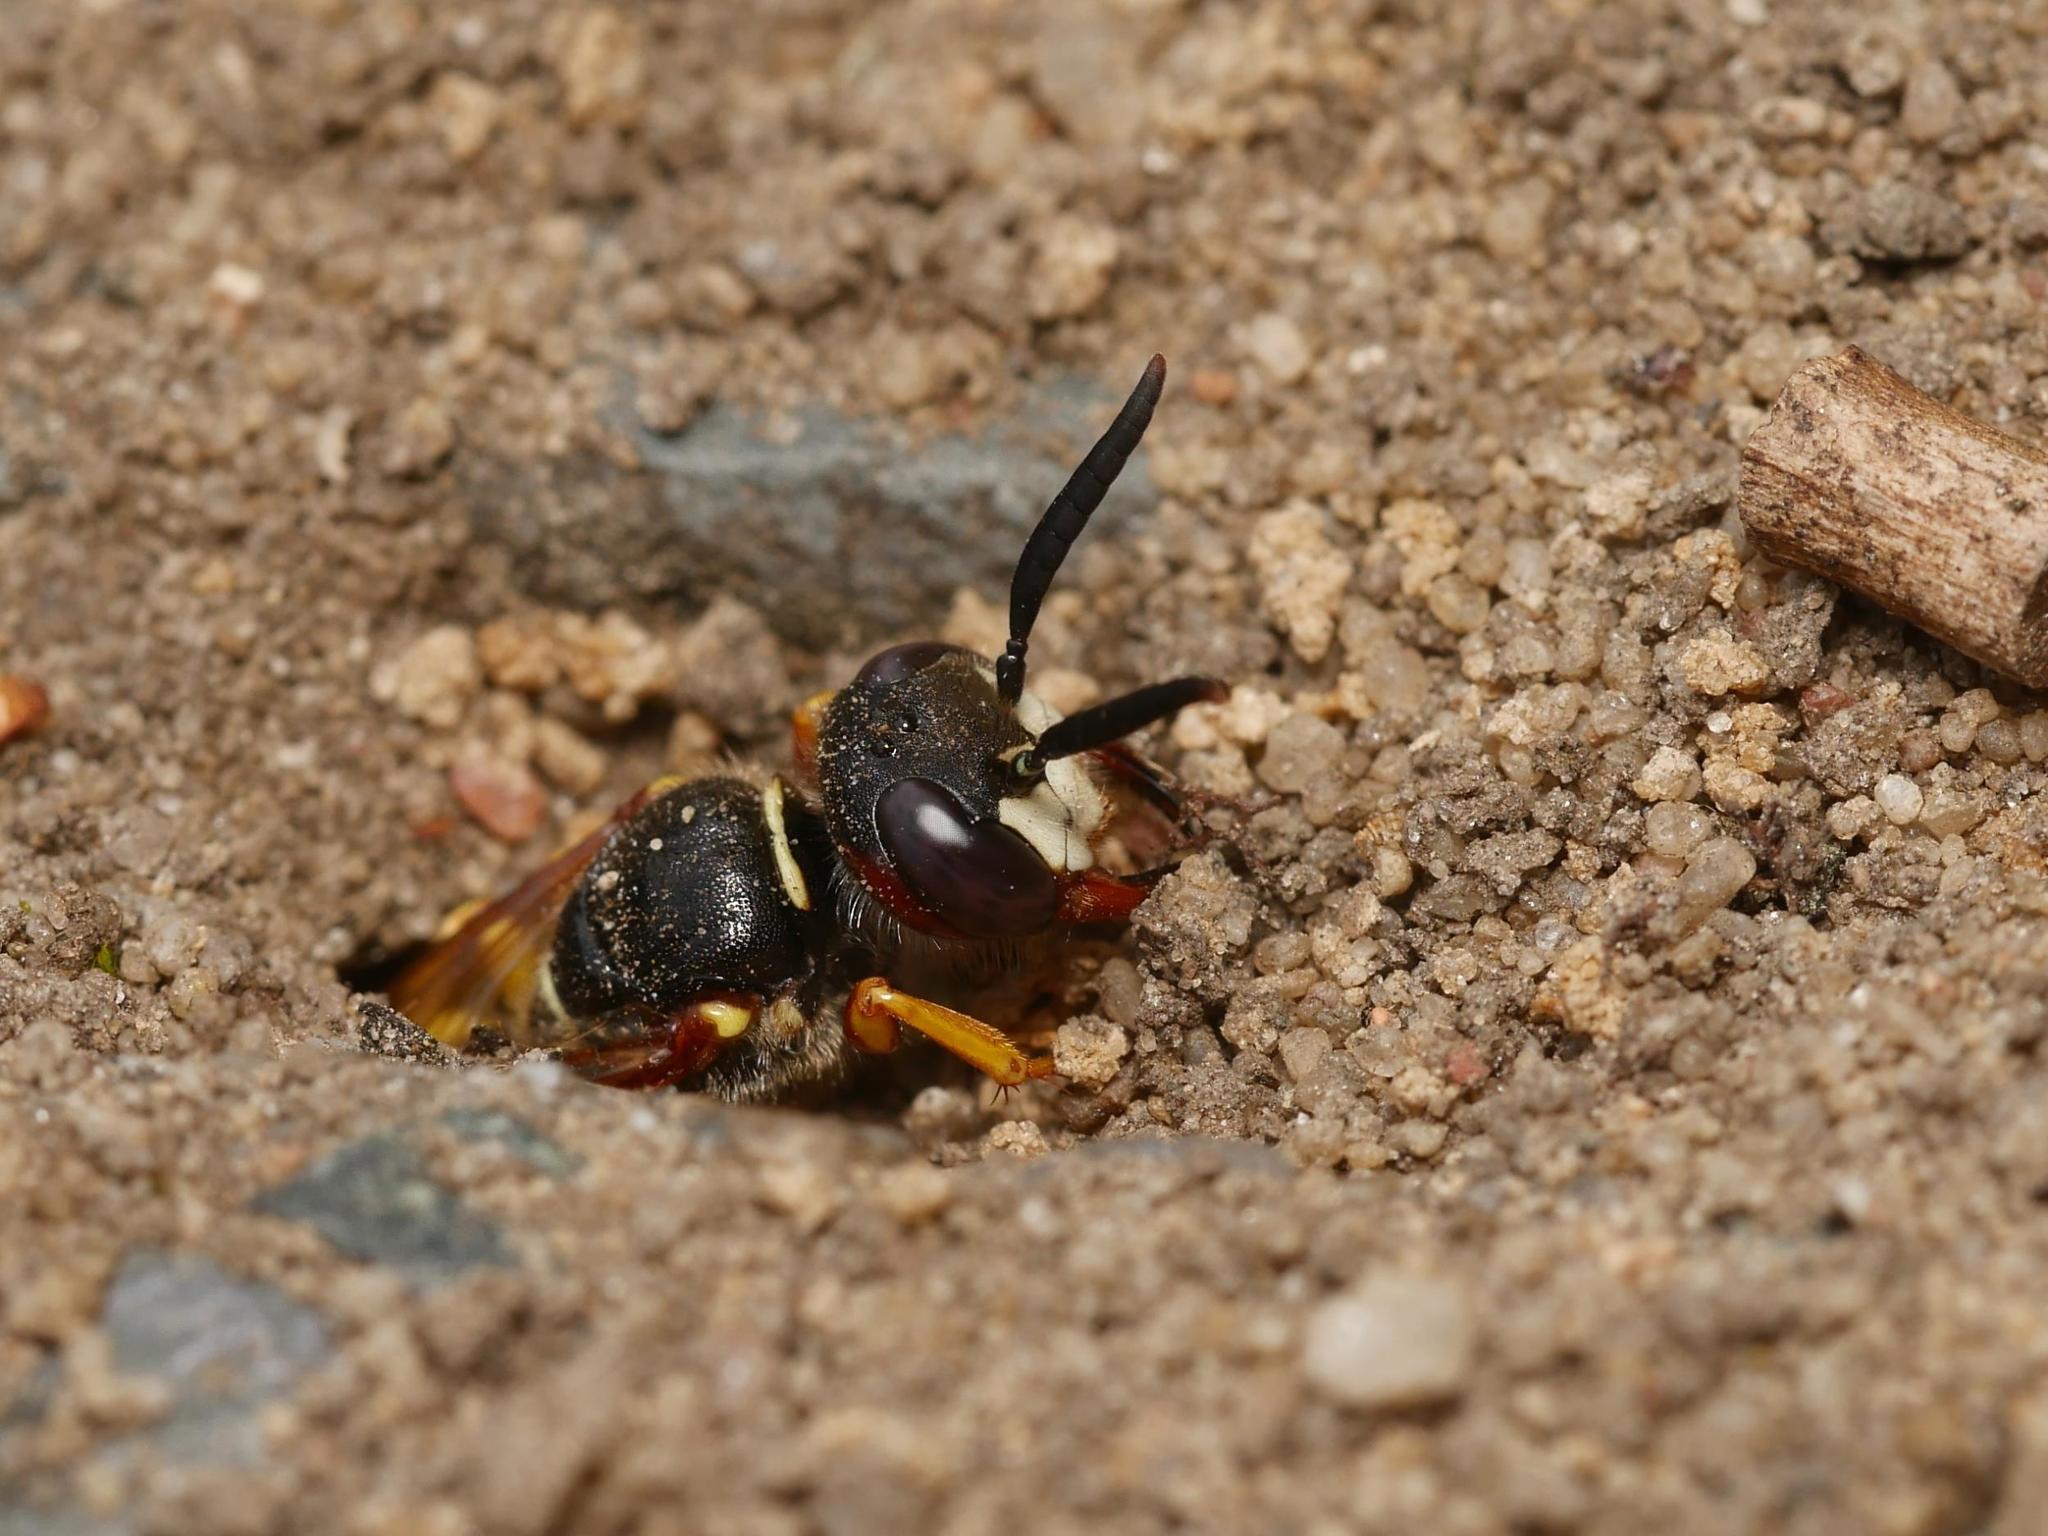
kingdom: Animalia
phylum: Arthropoda
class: Insecta
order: Hymenoptera
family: Crabronidae
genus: Philanthus
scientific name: Philanthus triangulum
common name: Bee wolf
